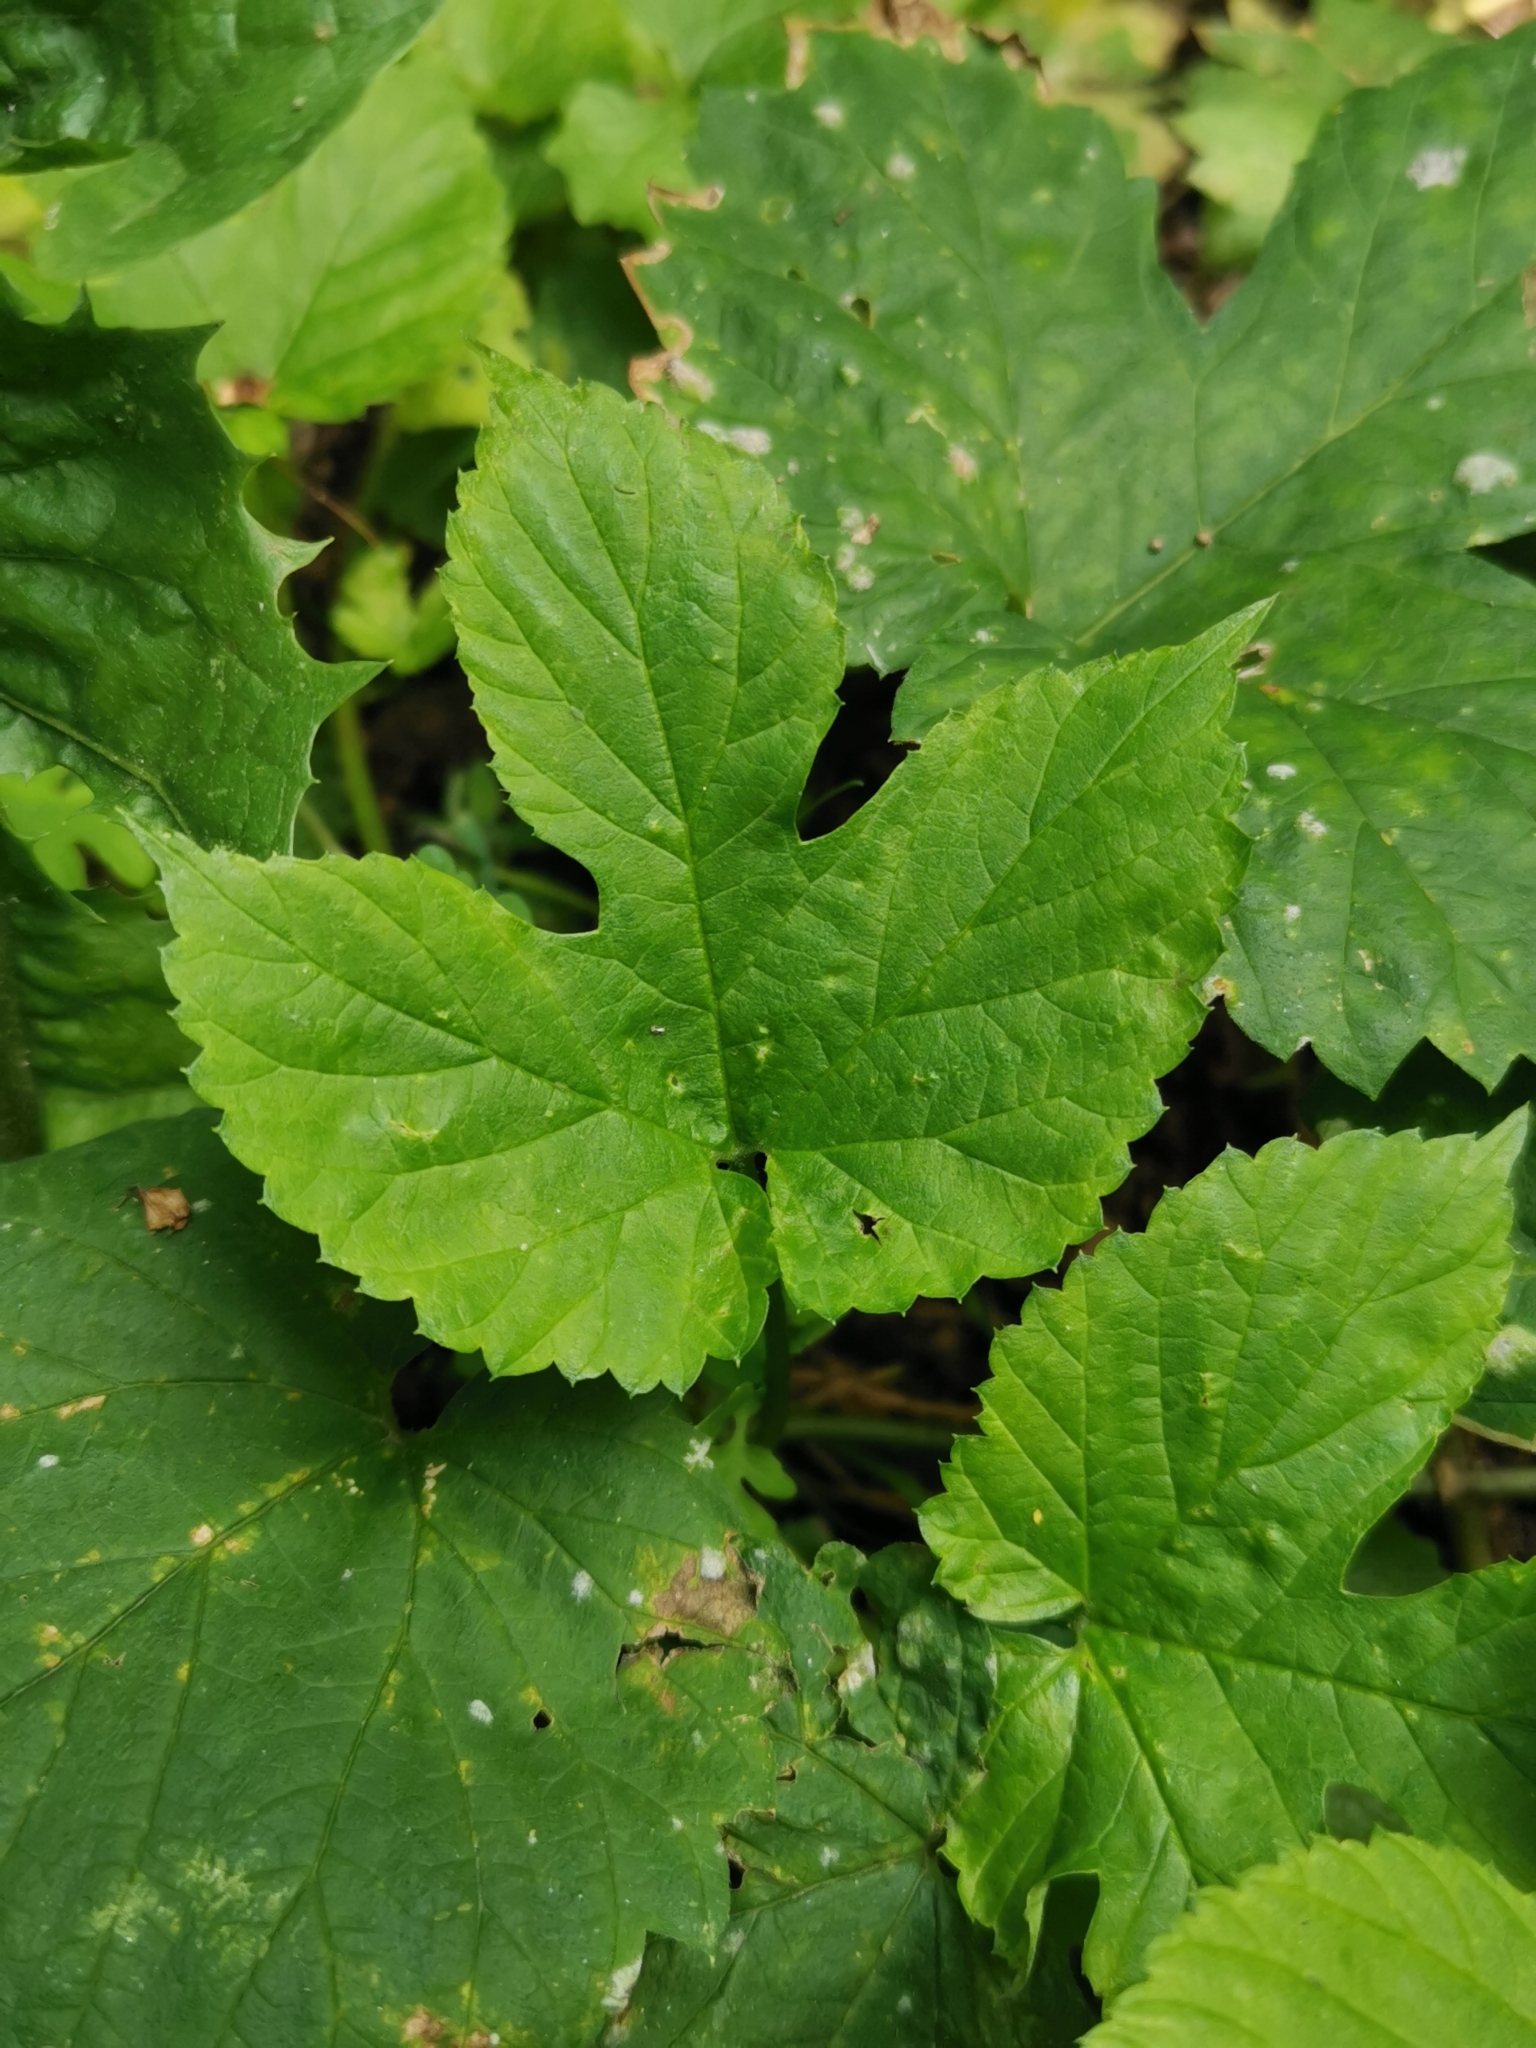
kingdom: Plantae
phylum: Tracheophyta
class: Magnoliopsida
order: Rosales
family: Cannabaceae
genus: Humulus
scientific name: Humulus lupulus
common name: Hop
